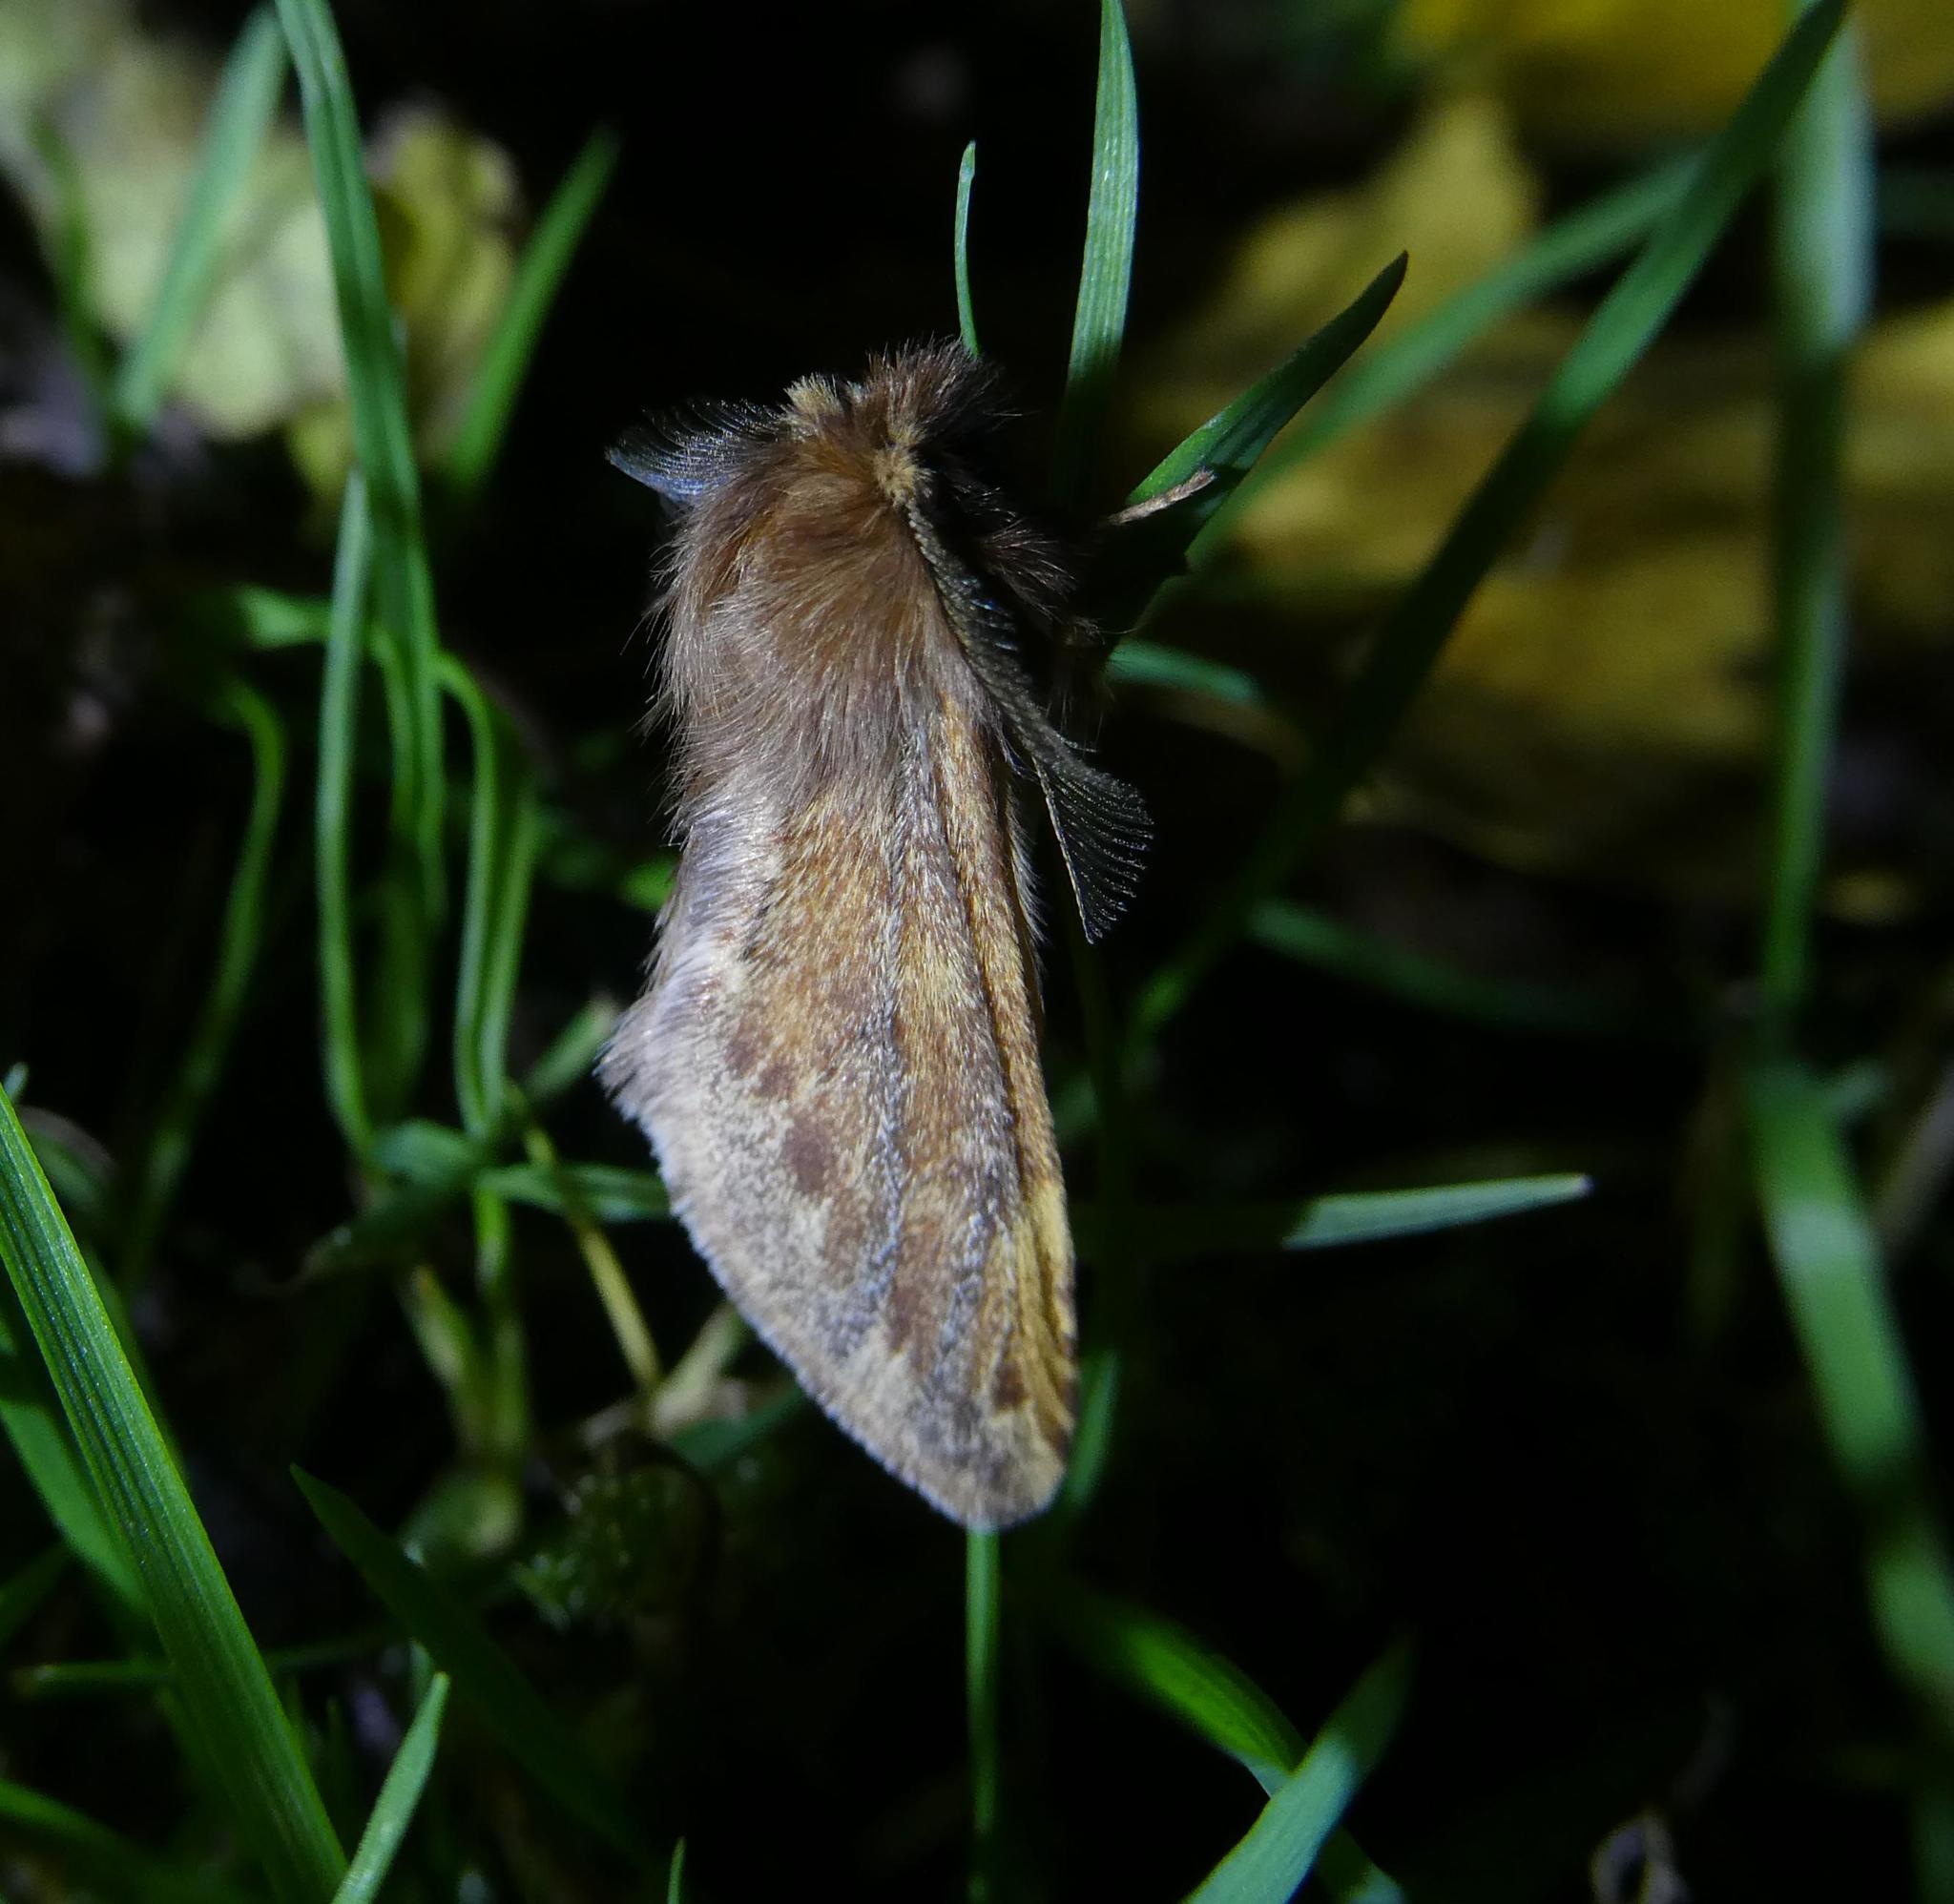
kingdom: Animalia
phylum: Arthropoda
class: Insecta
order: Lepidoptera
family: Notodontidae
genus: Ptilophora
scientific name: Ptilophora plumigera
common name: Plumed prominent
